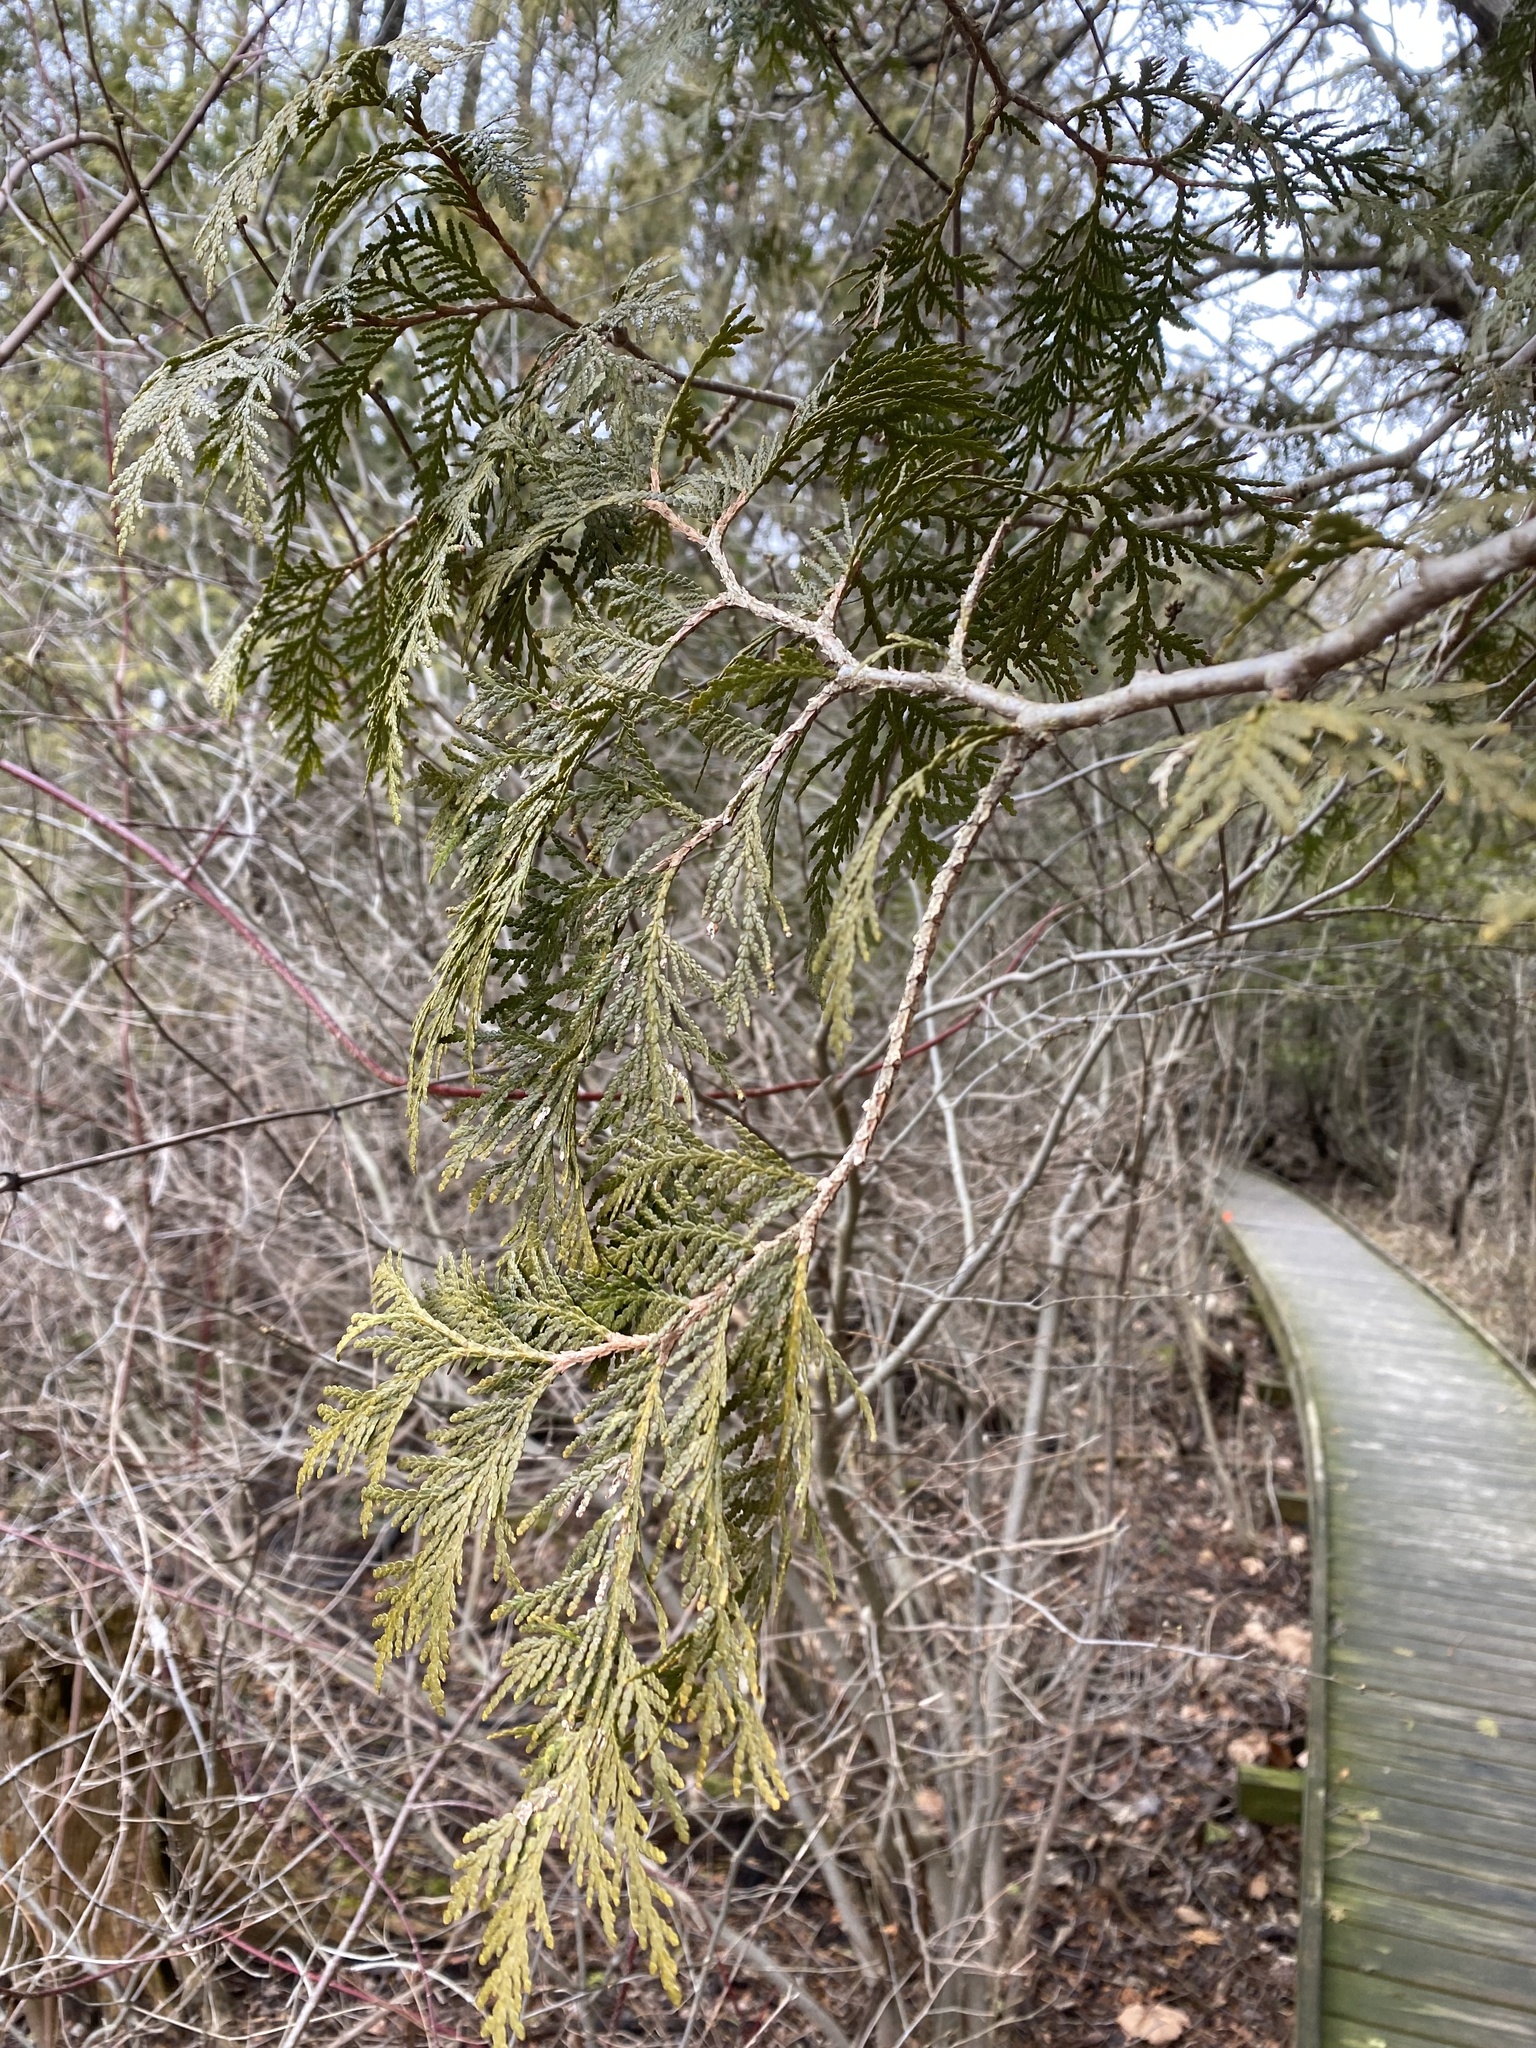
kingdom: Plantae
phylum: Tracheophyta
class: Pinopsida
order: Pinales
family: Cupressaceae
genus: Thuja
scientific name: Thuja occidentalis
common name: Northern white-cedar
